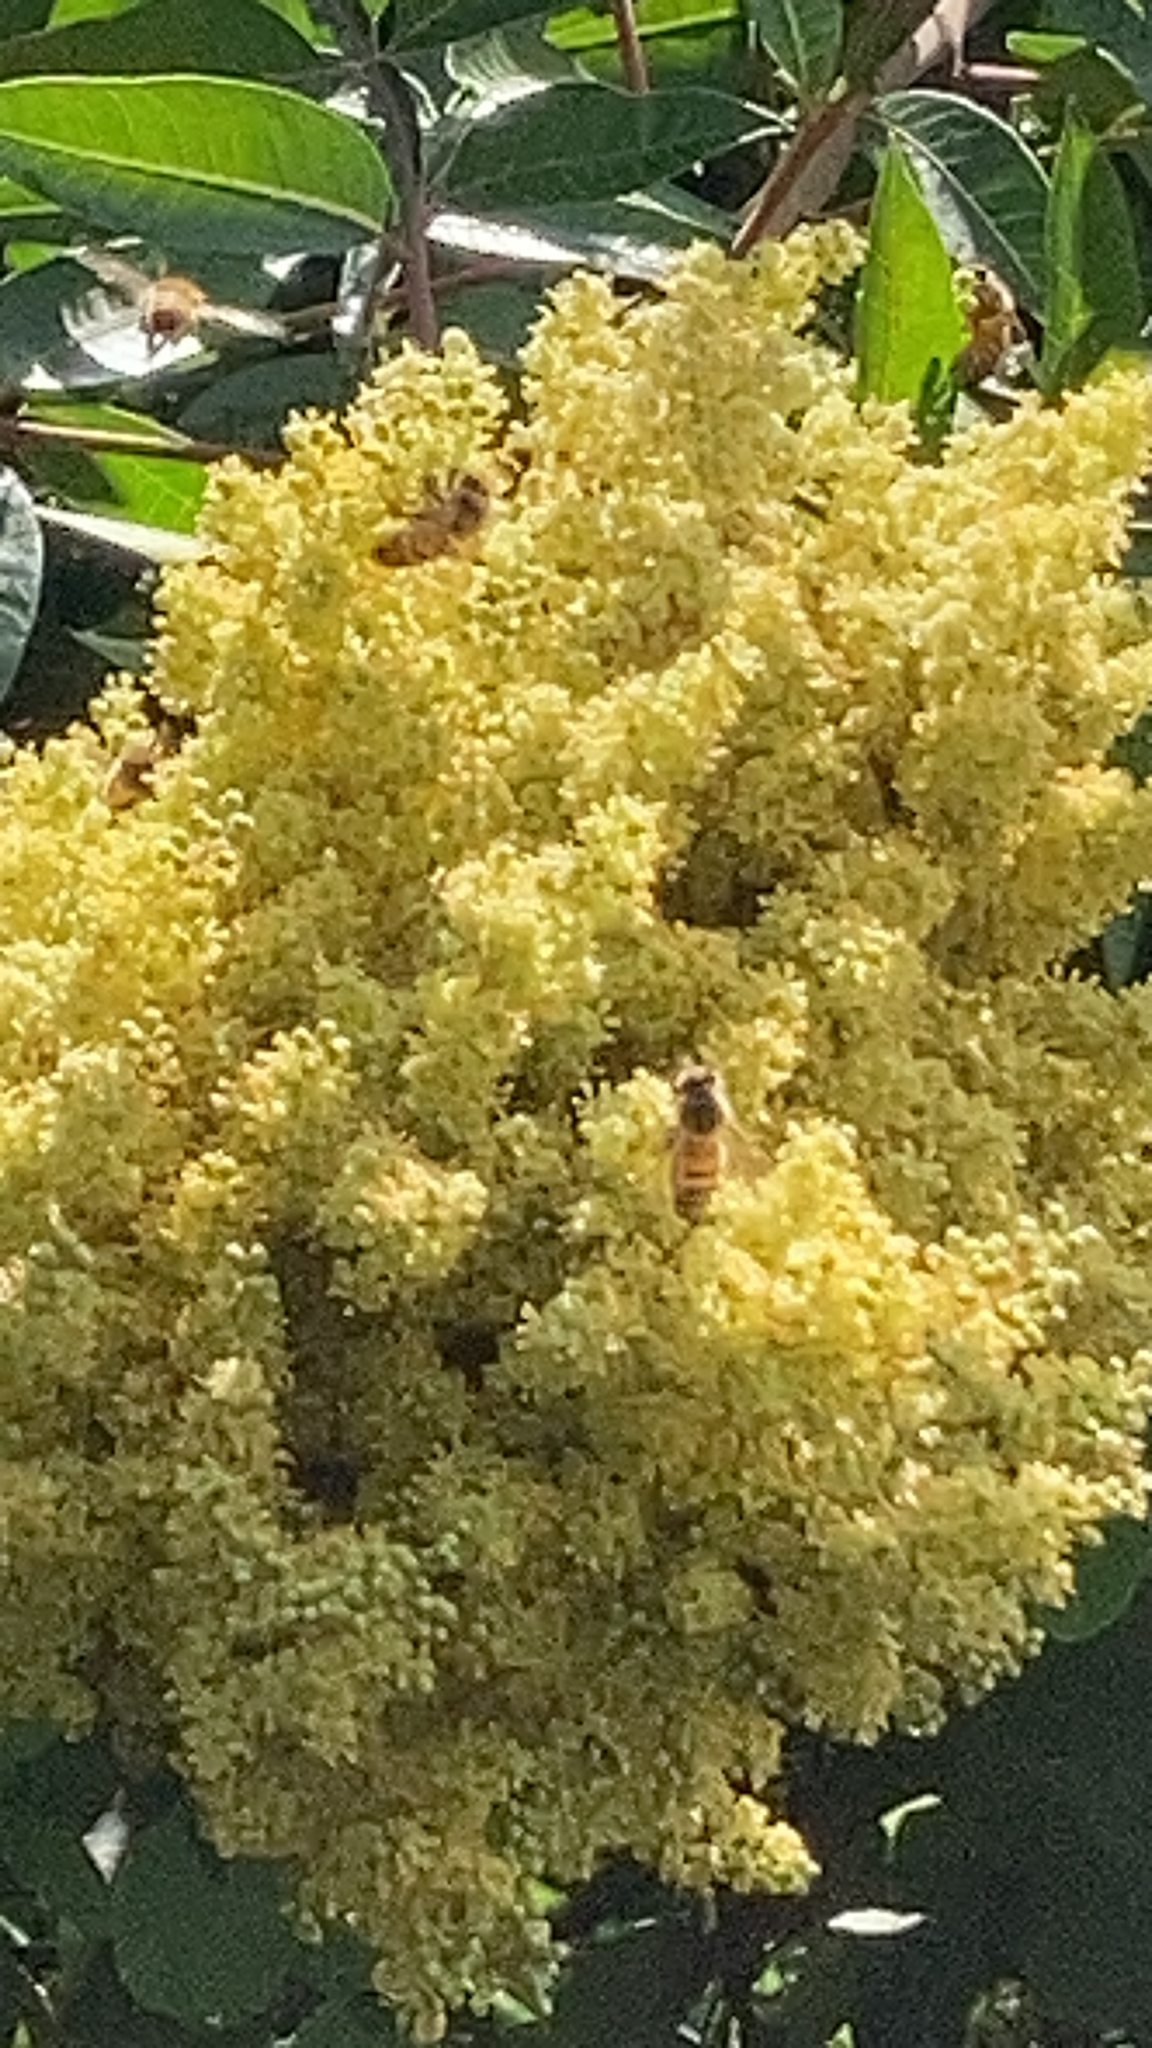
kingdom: Animalia
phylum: Arthropoda
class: Insecta
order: Hymenoptera
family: Apidae
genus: Apis
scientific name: Apis mellifera
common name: Honey bee
